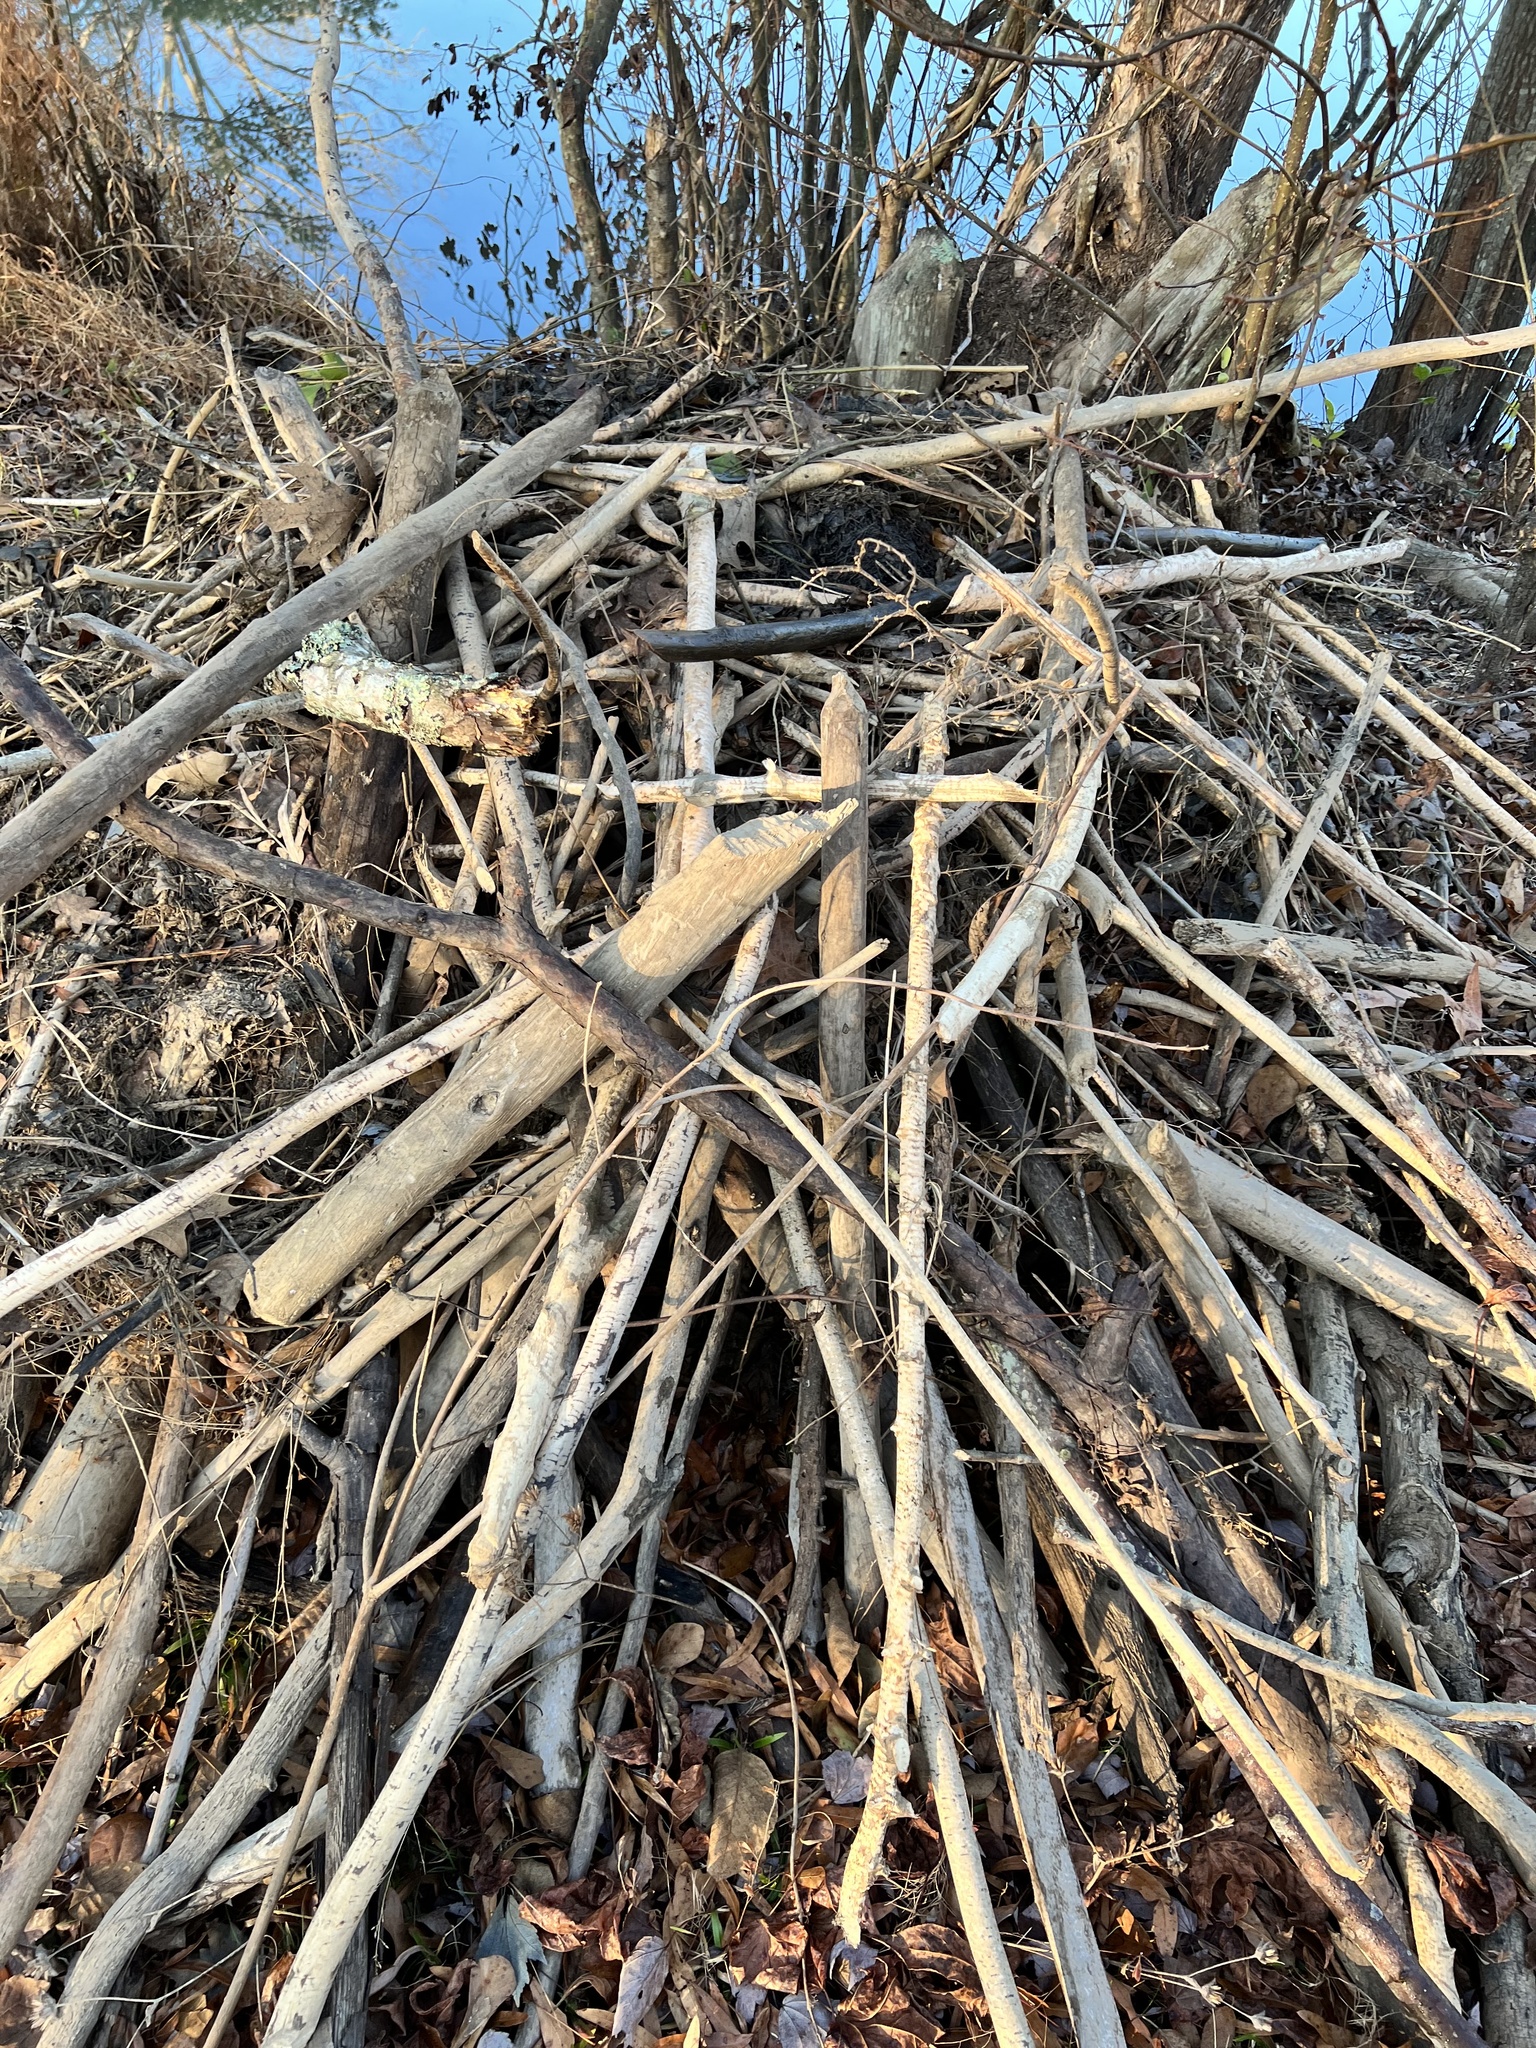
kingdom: Animalia
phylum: Chordata
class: Mammalia
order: Rodentia
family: Castoridae
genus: Castor
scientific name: Castor canadensis
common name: American beaver
